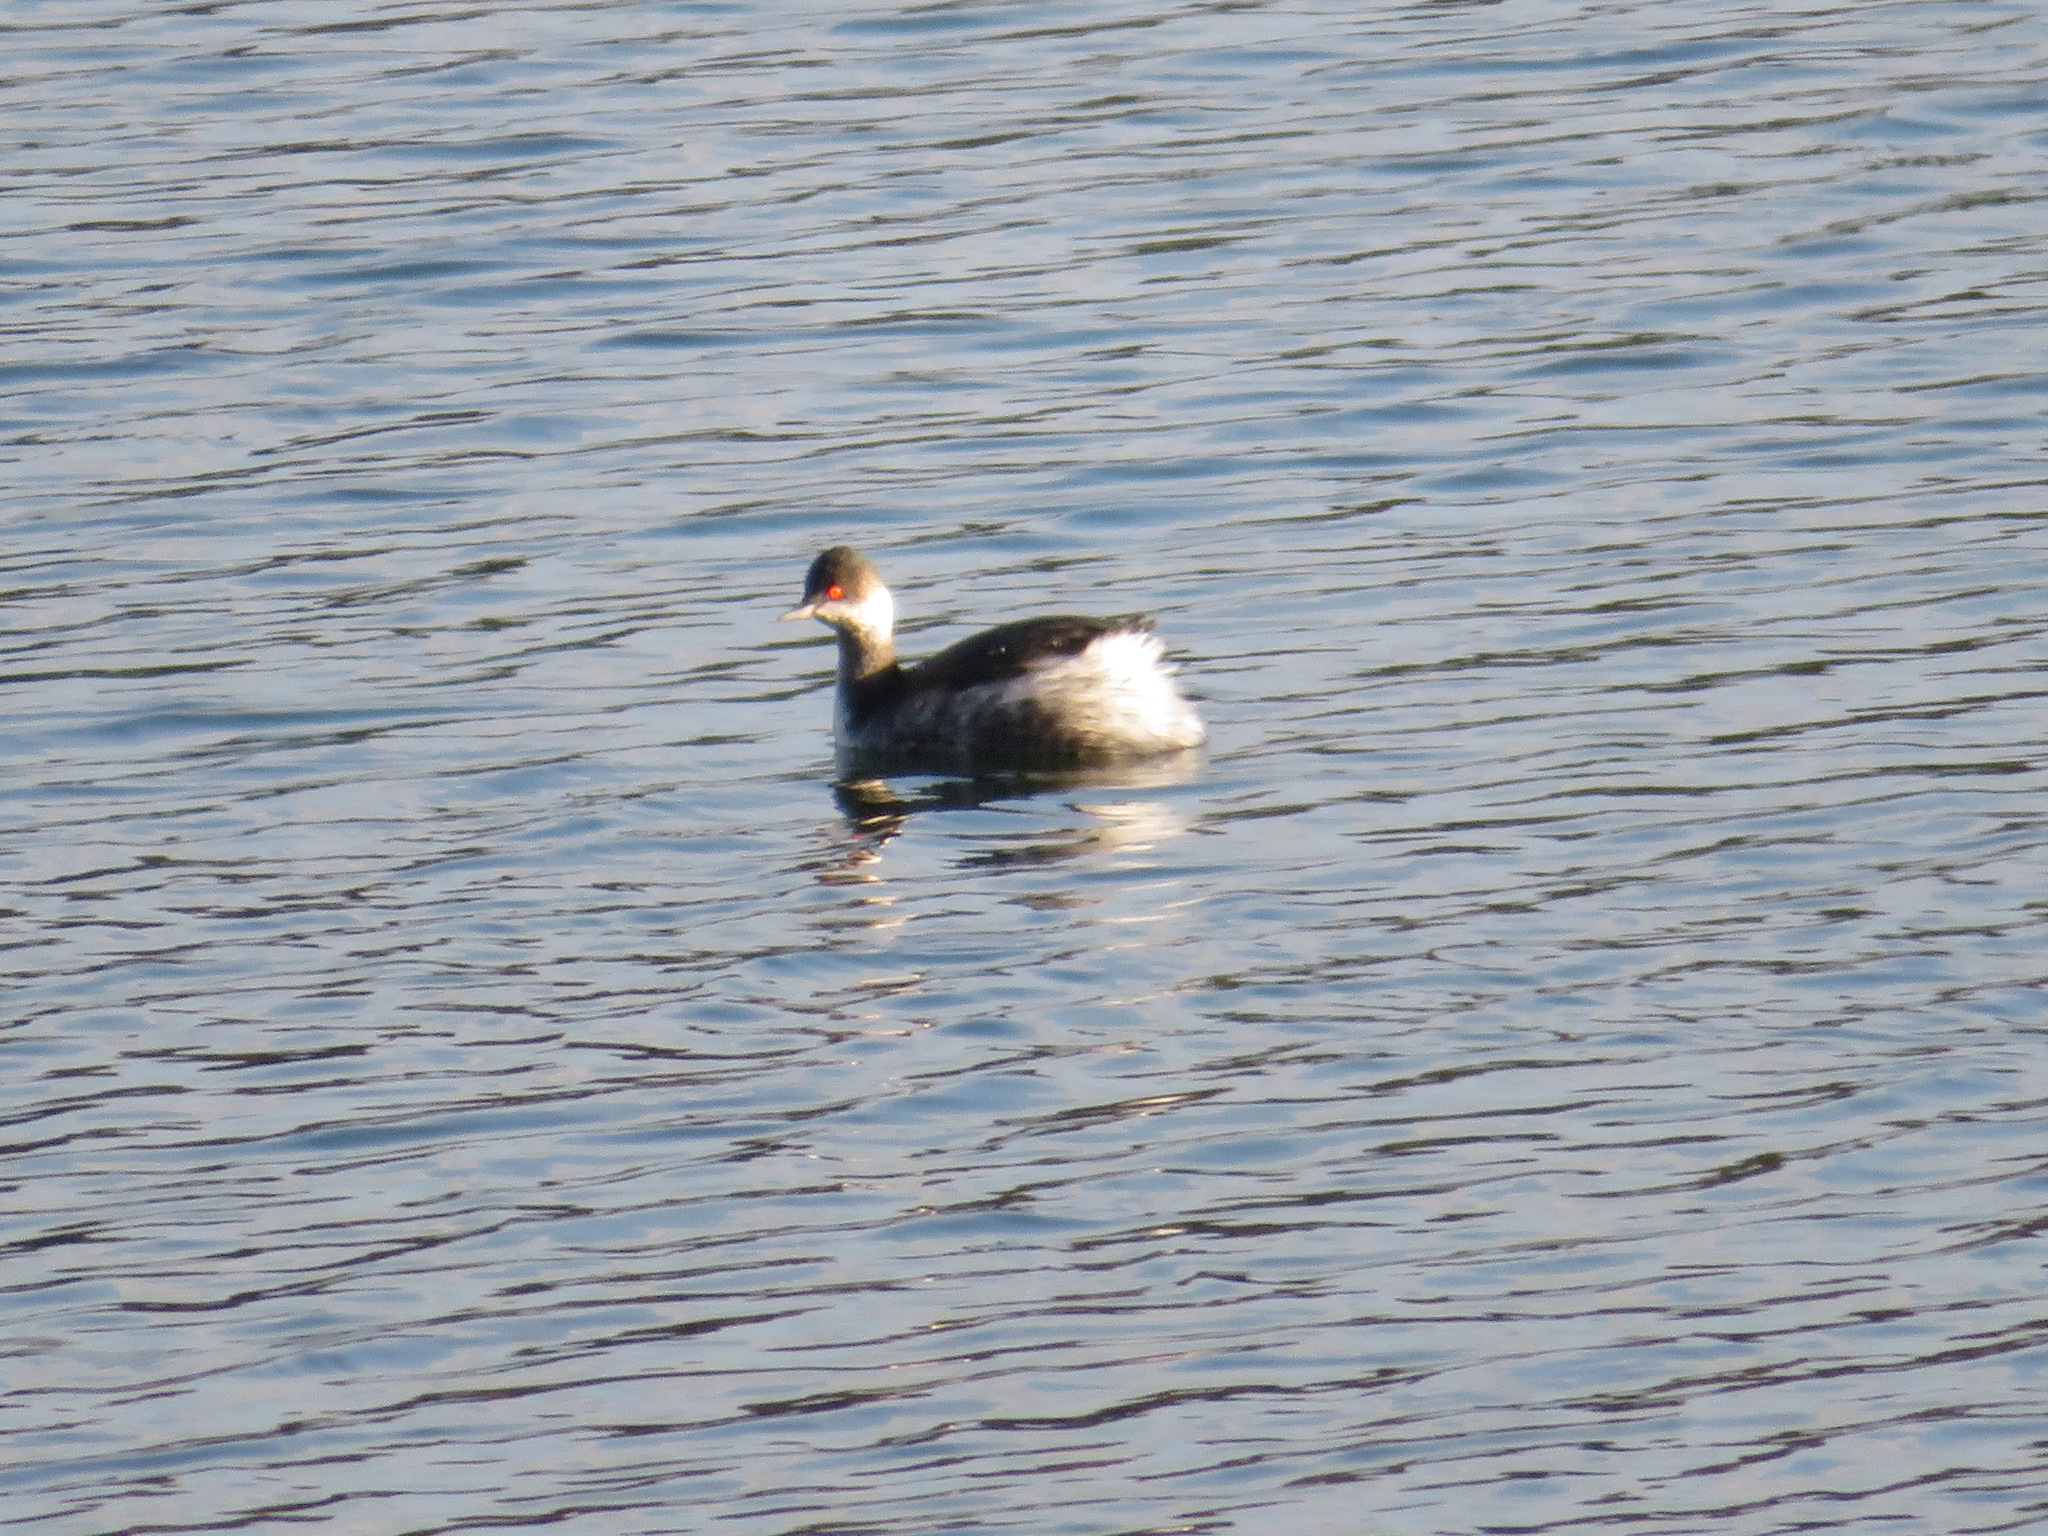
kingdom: Animalia
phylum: Chordata
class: Aves
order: Podicipediformes
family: Podicipedidae
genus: Podiceps
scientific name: Podiceps nigricollis
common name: Black-necked grebe
